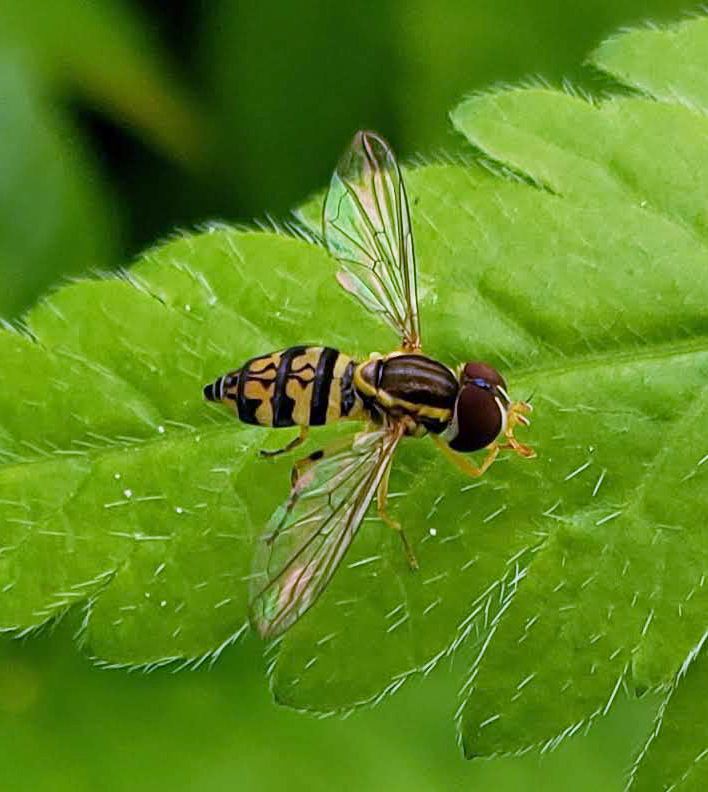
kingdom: Animalia
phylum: Arthropoda
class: Insecta
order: Diptera
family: Syrphidae
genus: Toxomerus
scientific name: Toxomerus geminatus
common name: Eastern calligrapher
